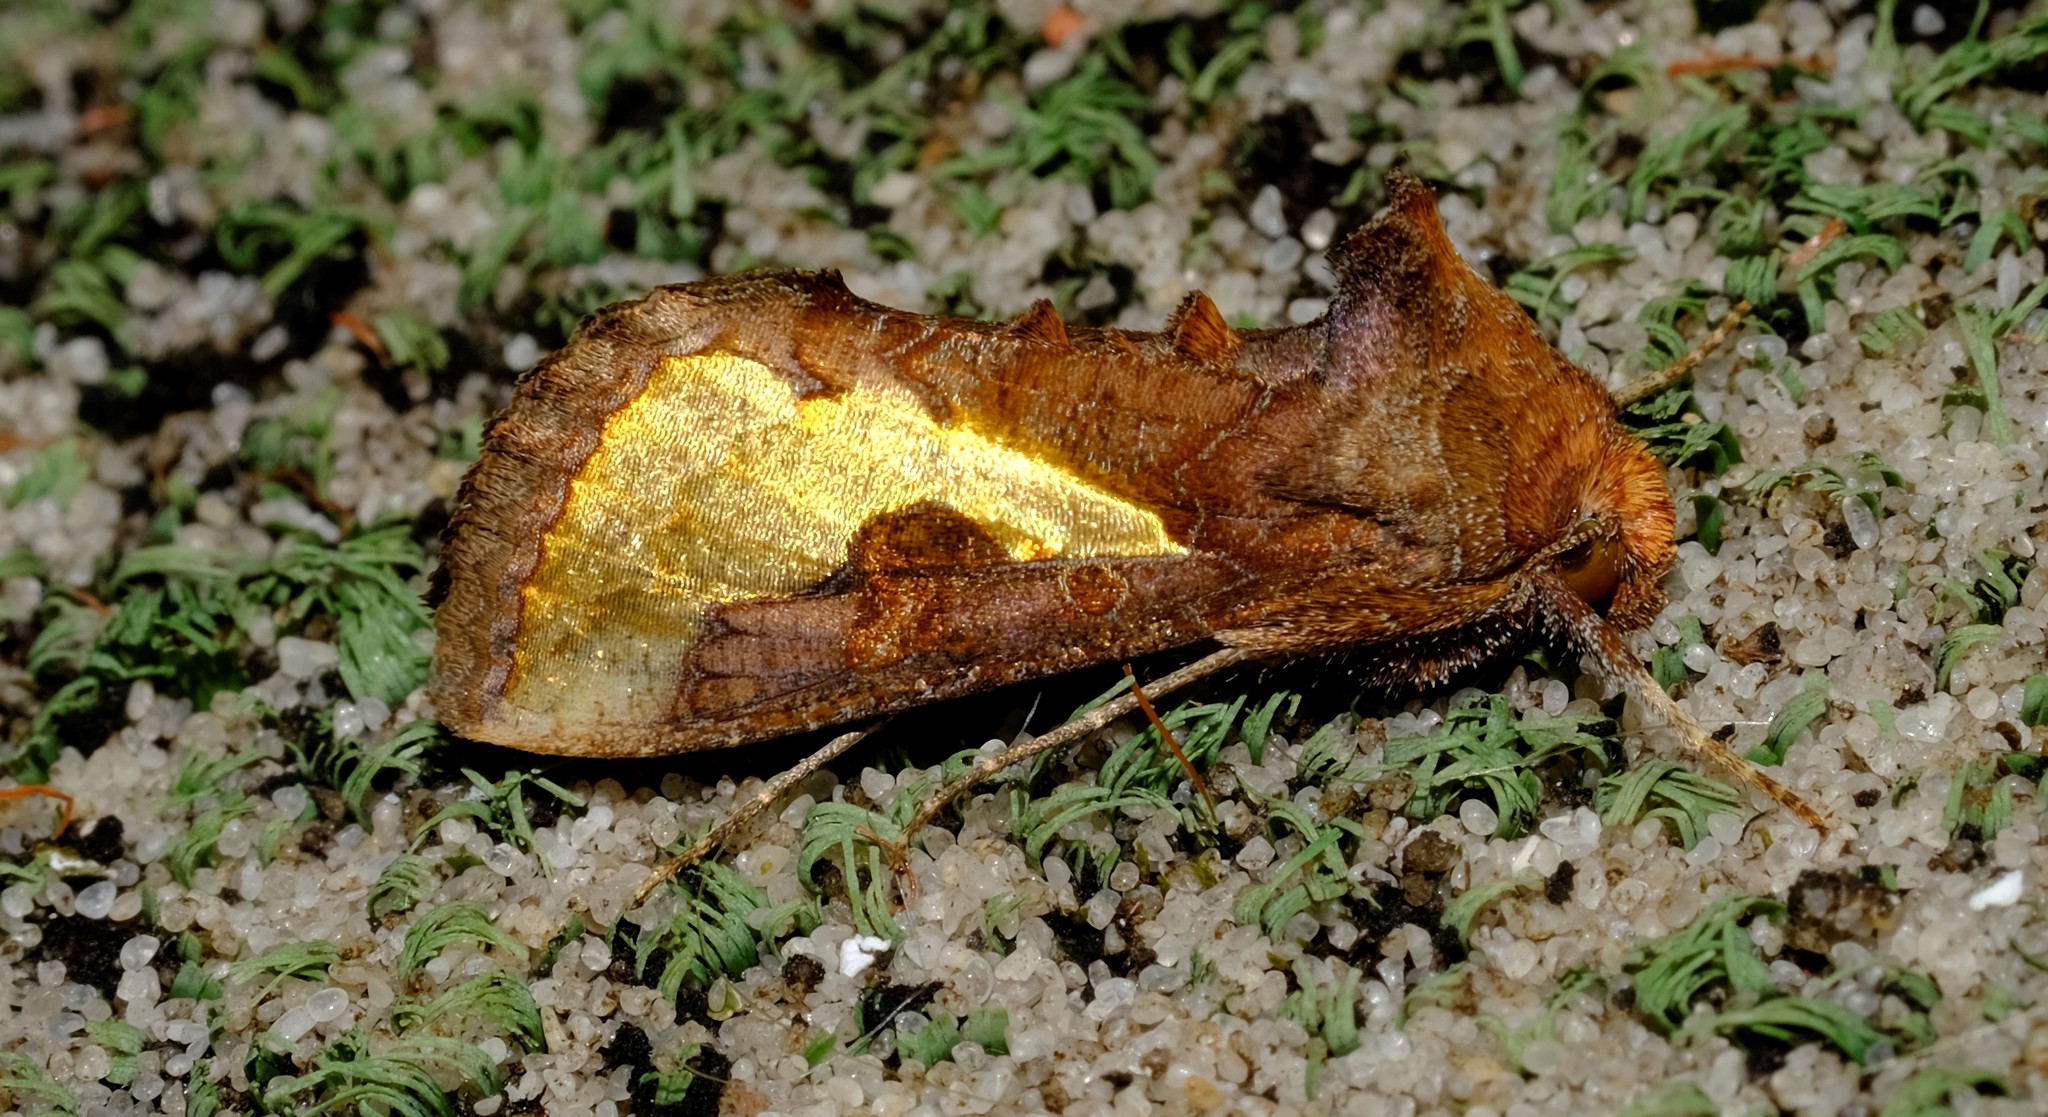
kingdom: Animalia
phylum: Arthropoda
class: Insecta
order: Lepidoptera
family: Noctuidae
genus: Thysanoplusia
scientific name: Thysanoplusia orichalcea
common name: Slender burnished brass, golden plusia
